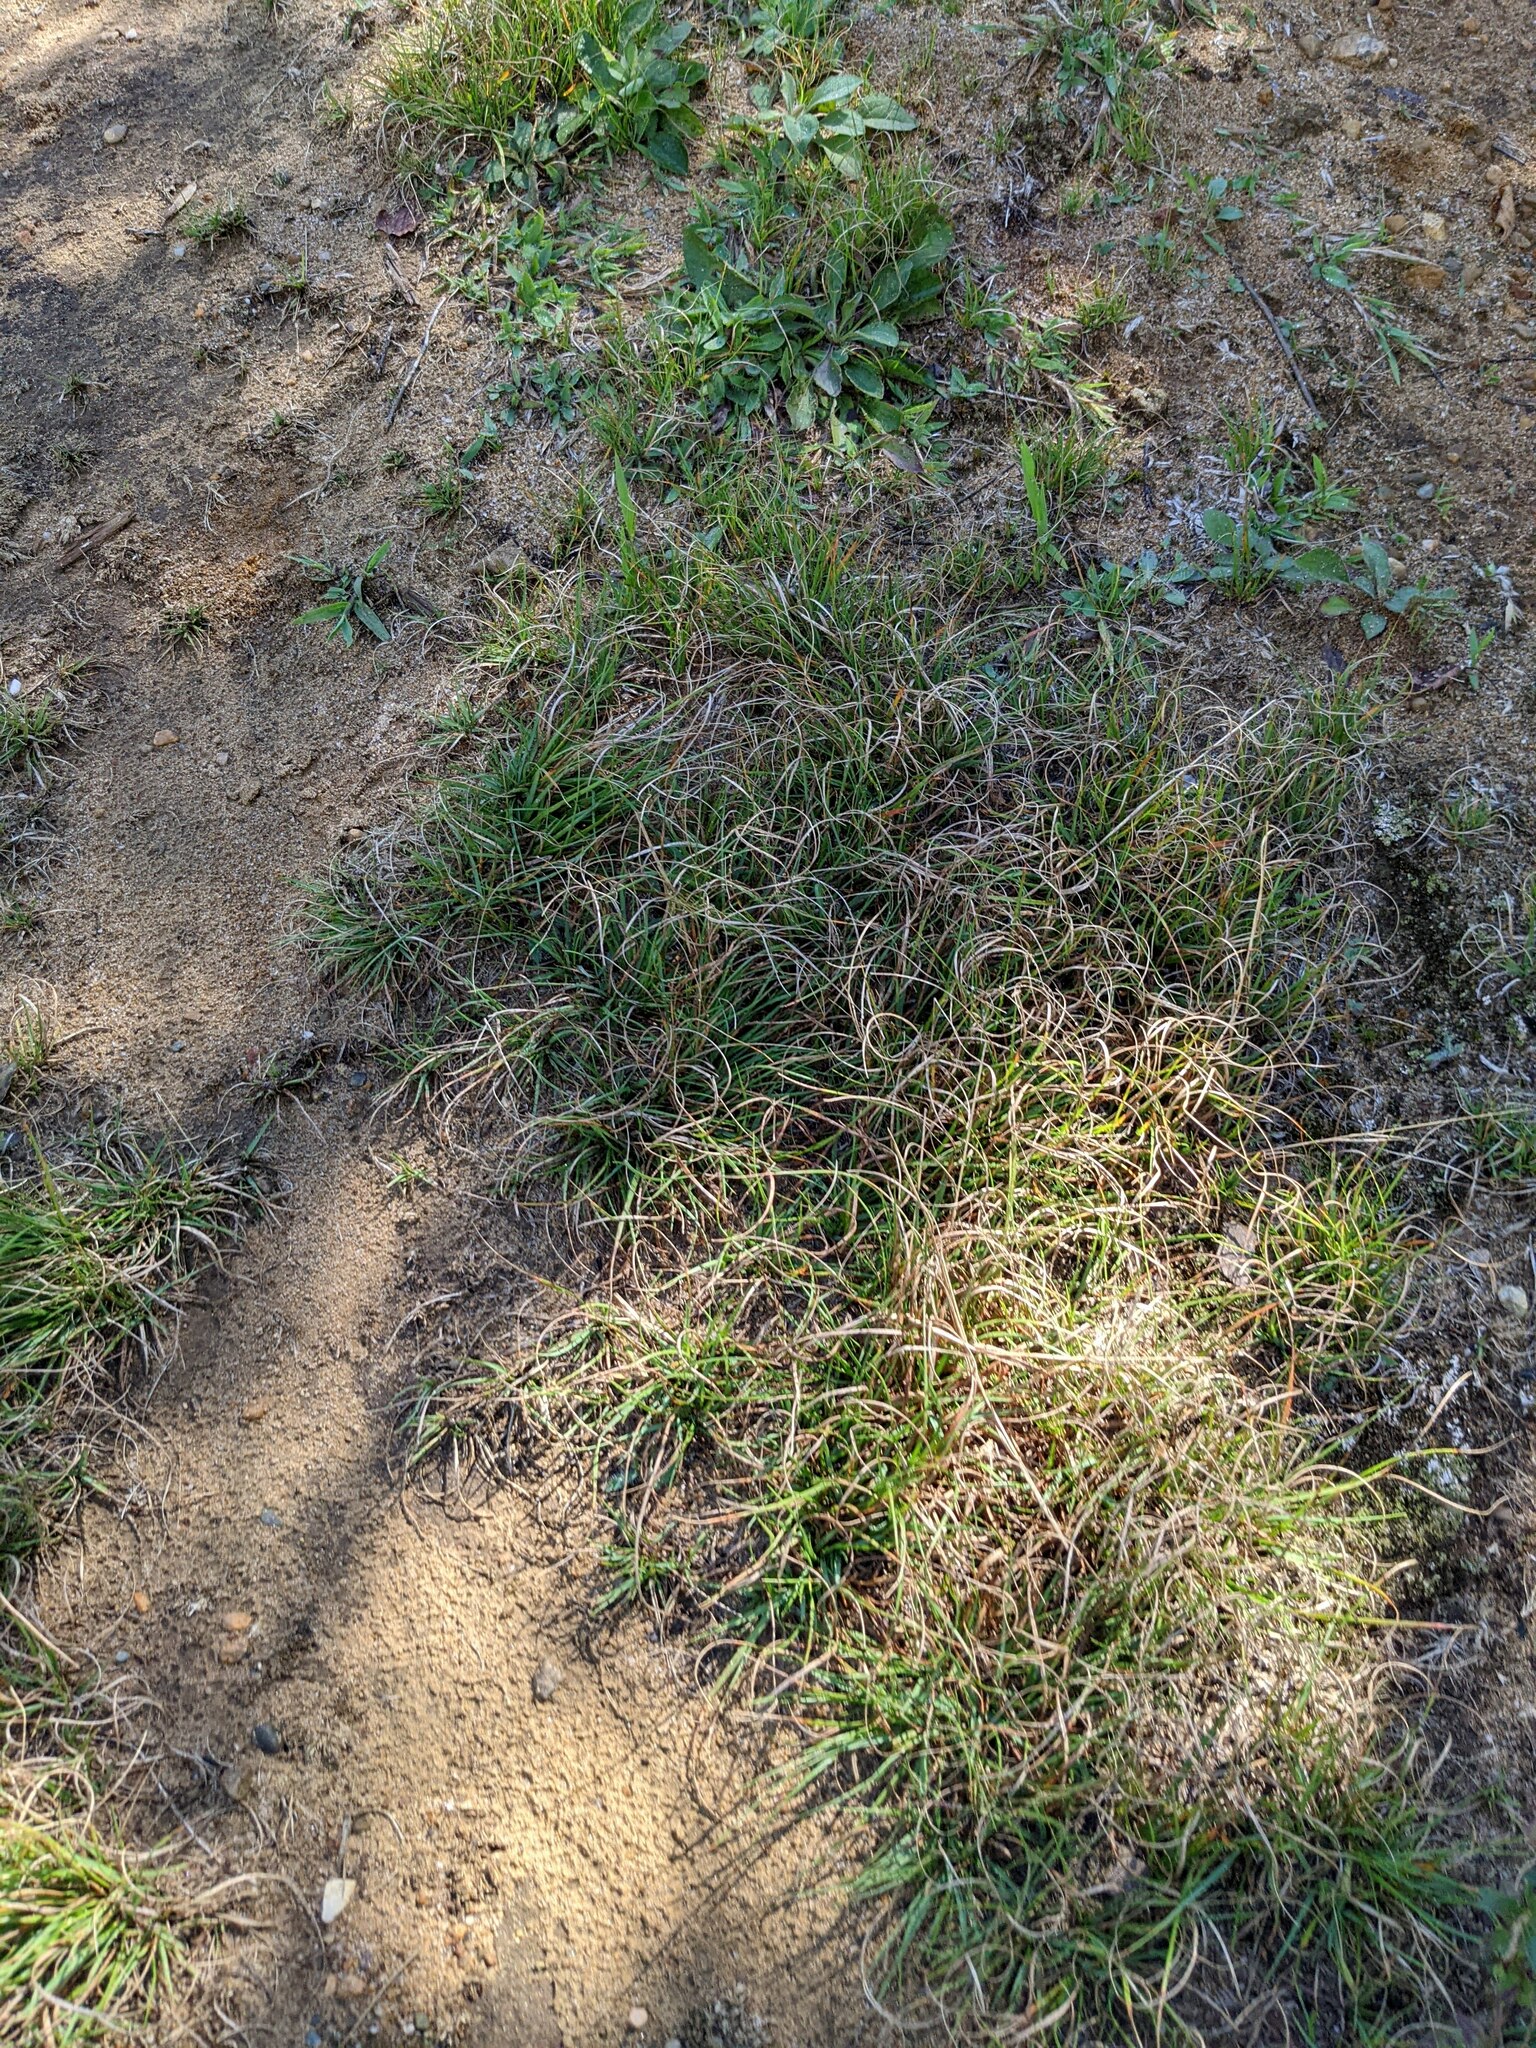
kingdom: Plantae
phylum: Tracheophyta
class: Liliopsida
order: Poales
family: Poaceae
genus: Danthonia
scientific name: Danthonia spicata
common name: Common wild oatgrass
